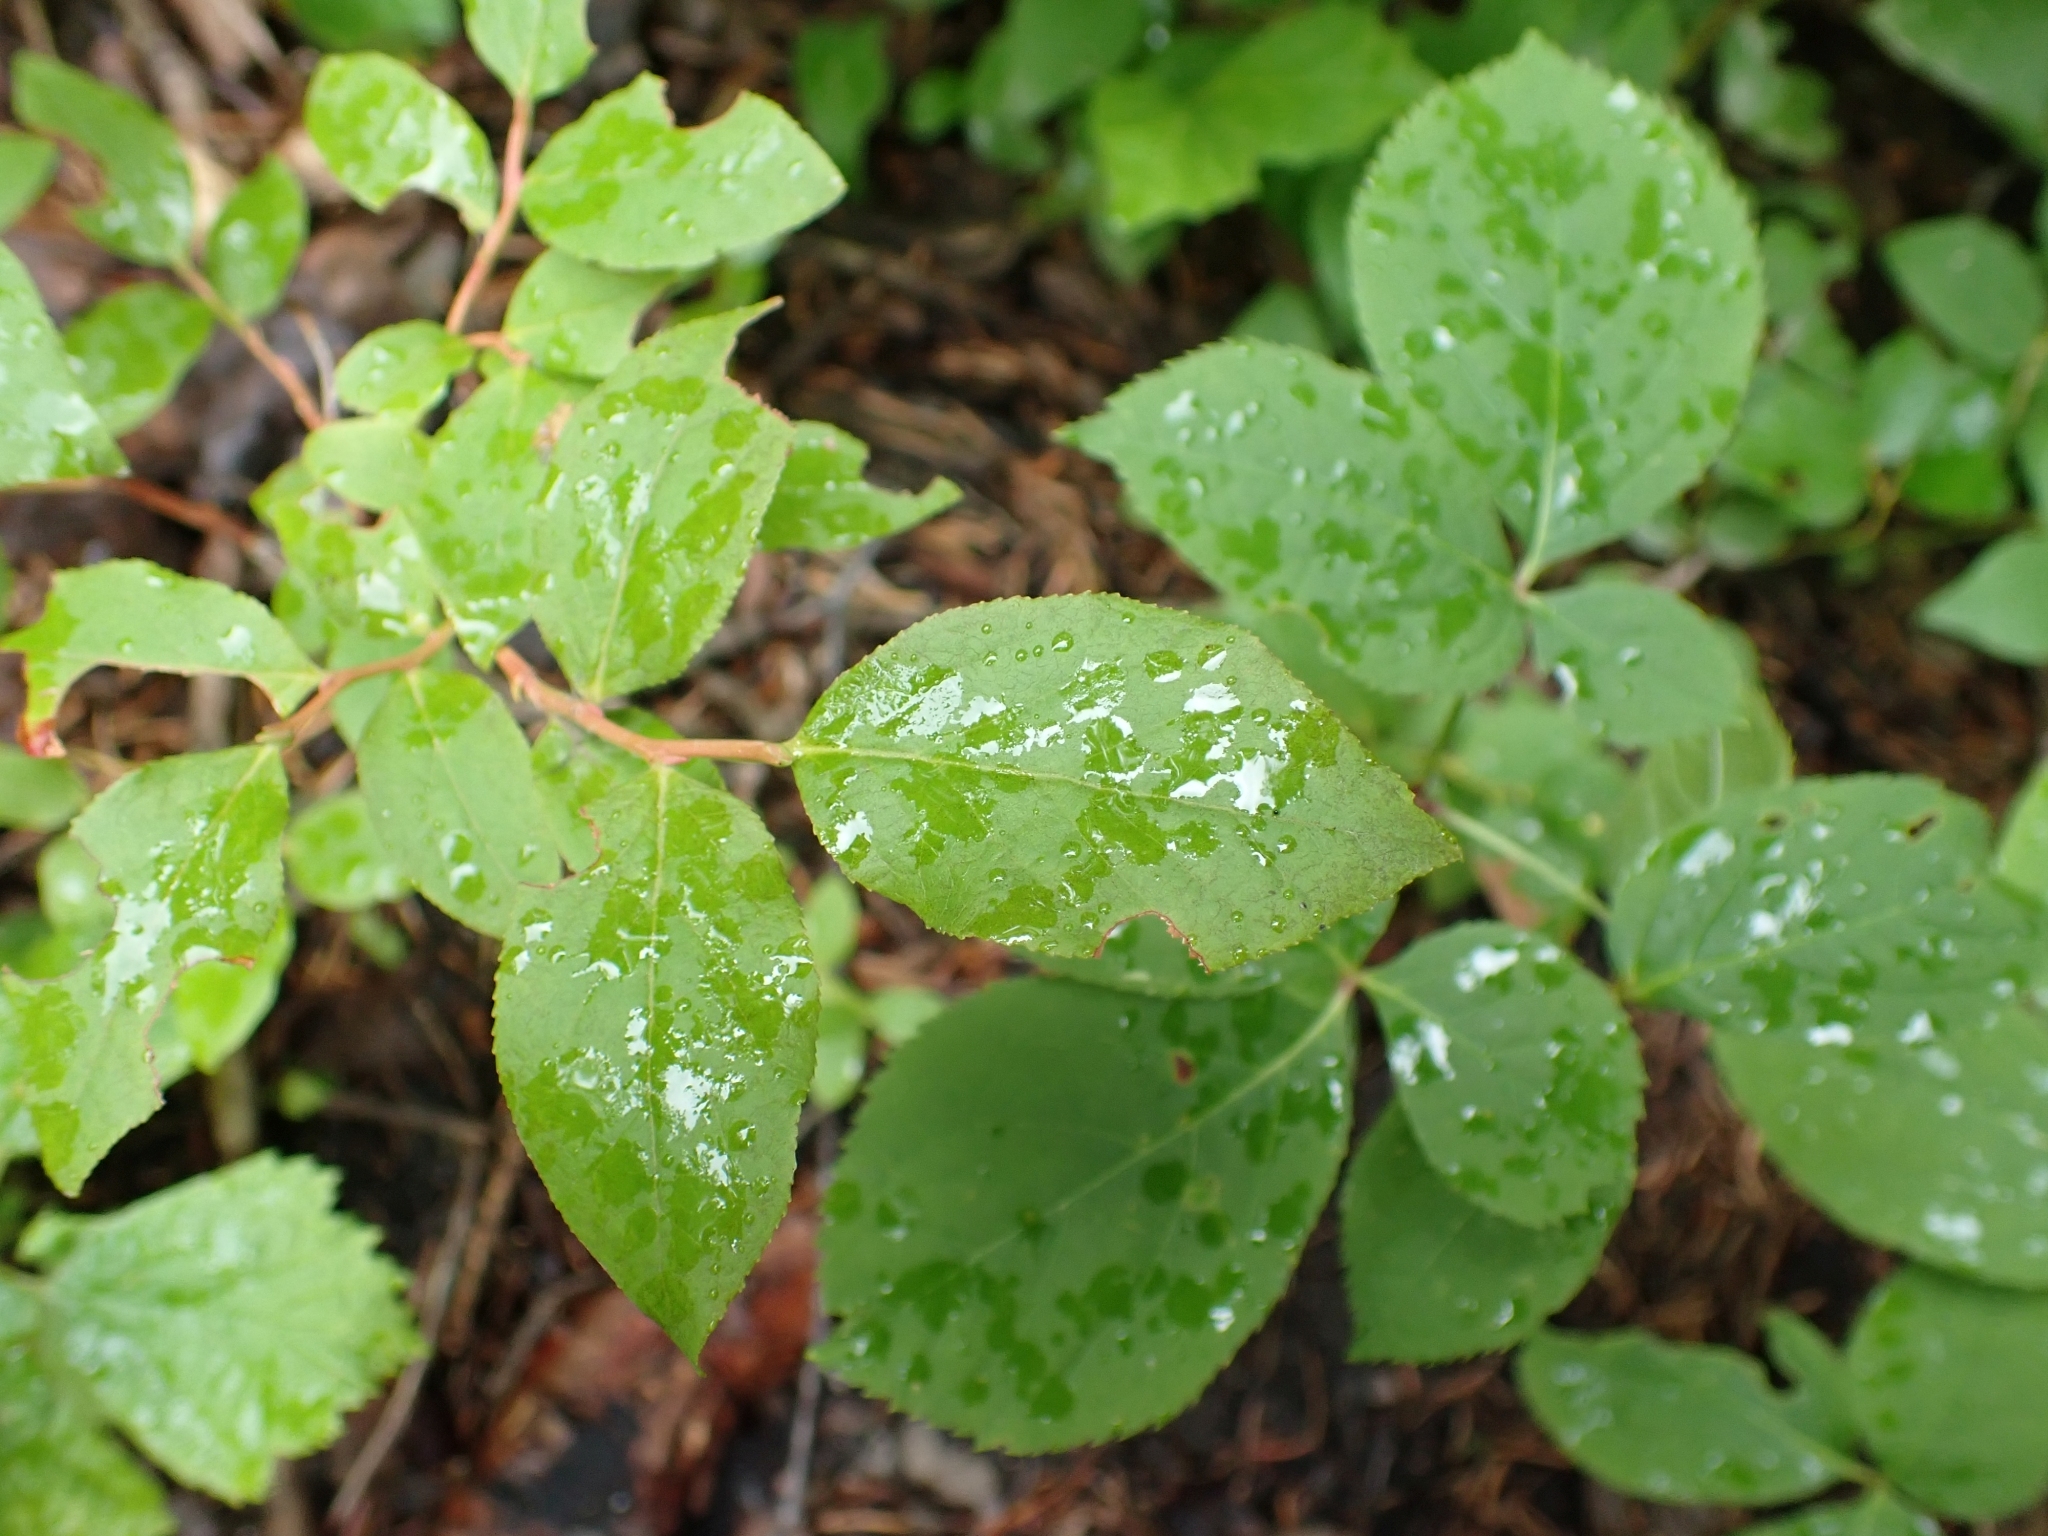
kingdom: Plantae
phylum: Tracheophyta
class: Magnoliopsida
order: Ericales
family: Ericaceae
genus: Vaccinium
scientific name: Vaccinium membranaceum
